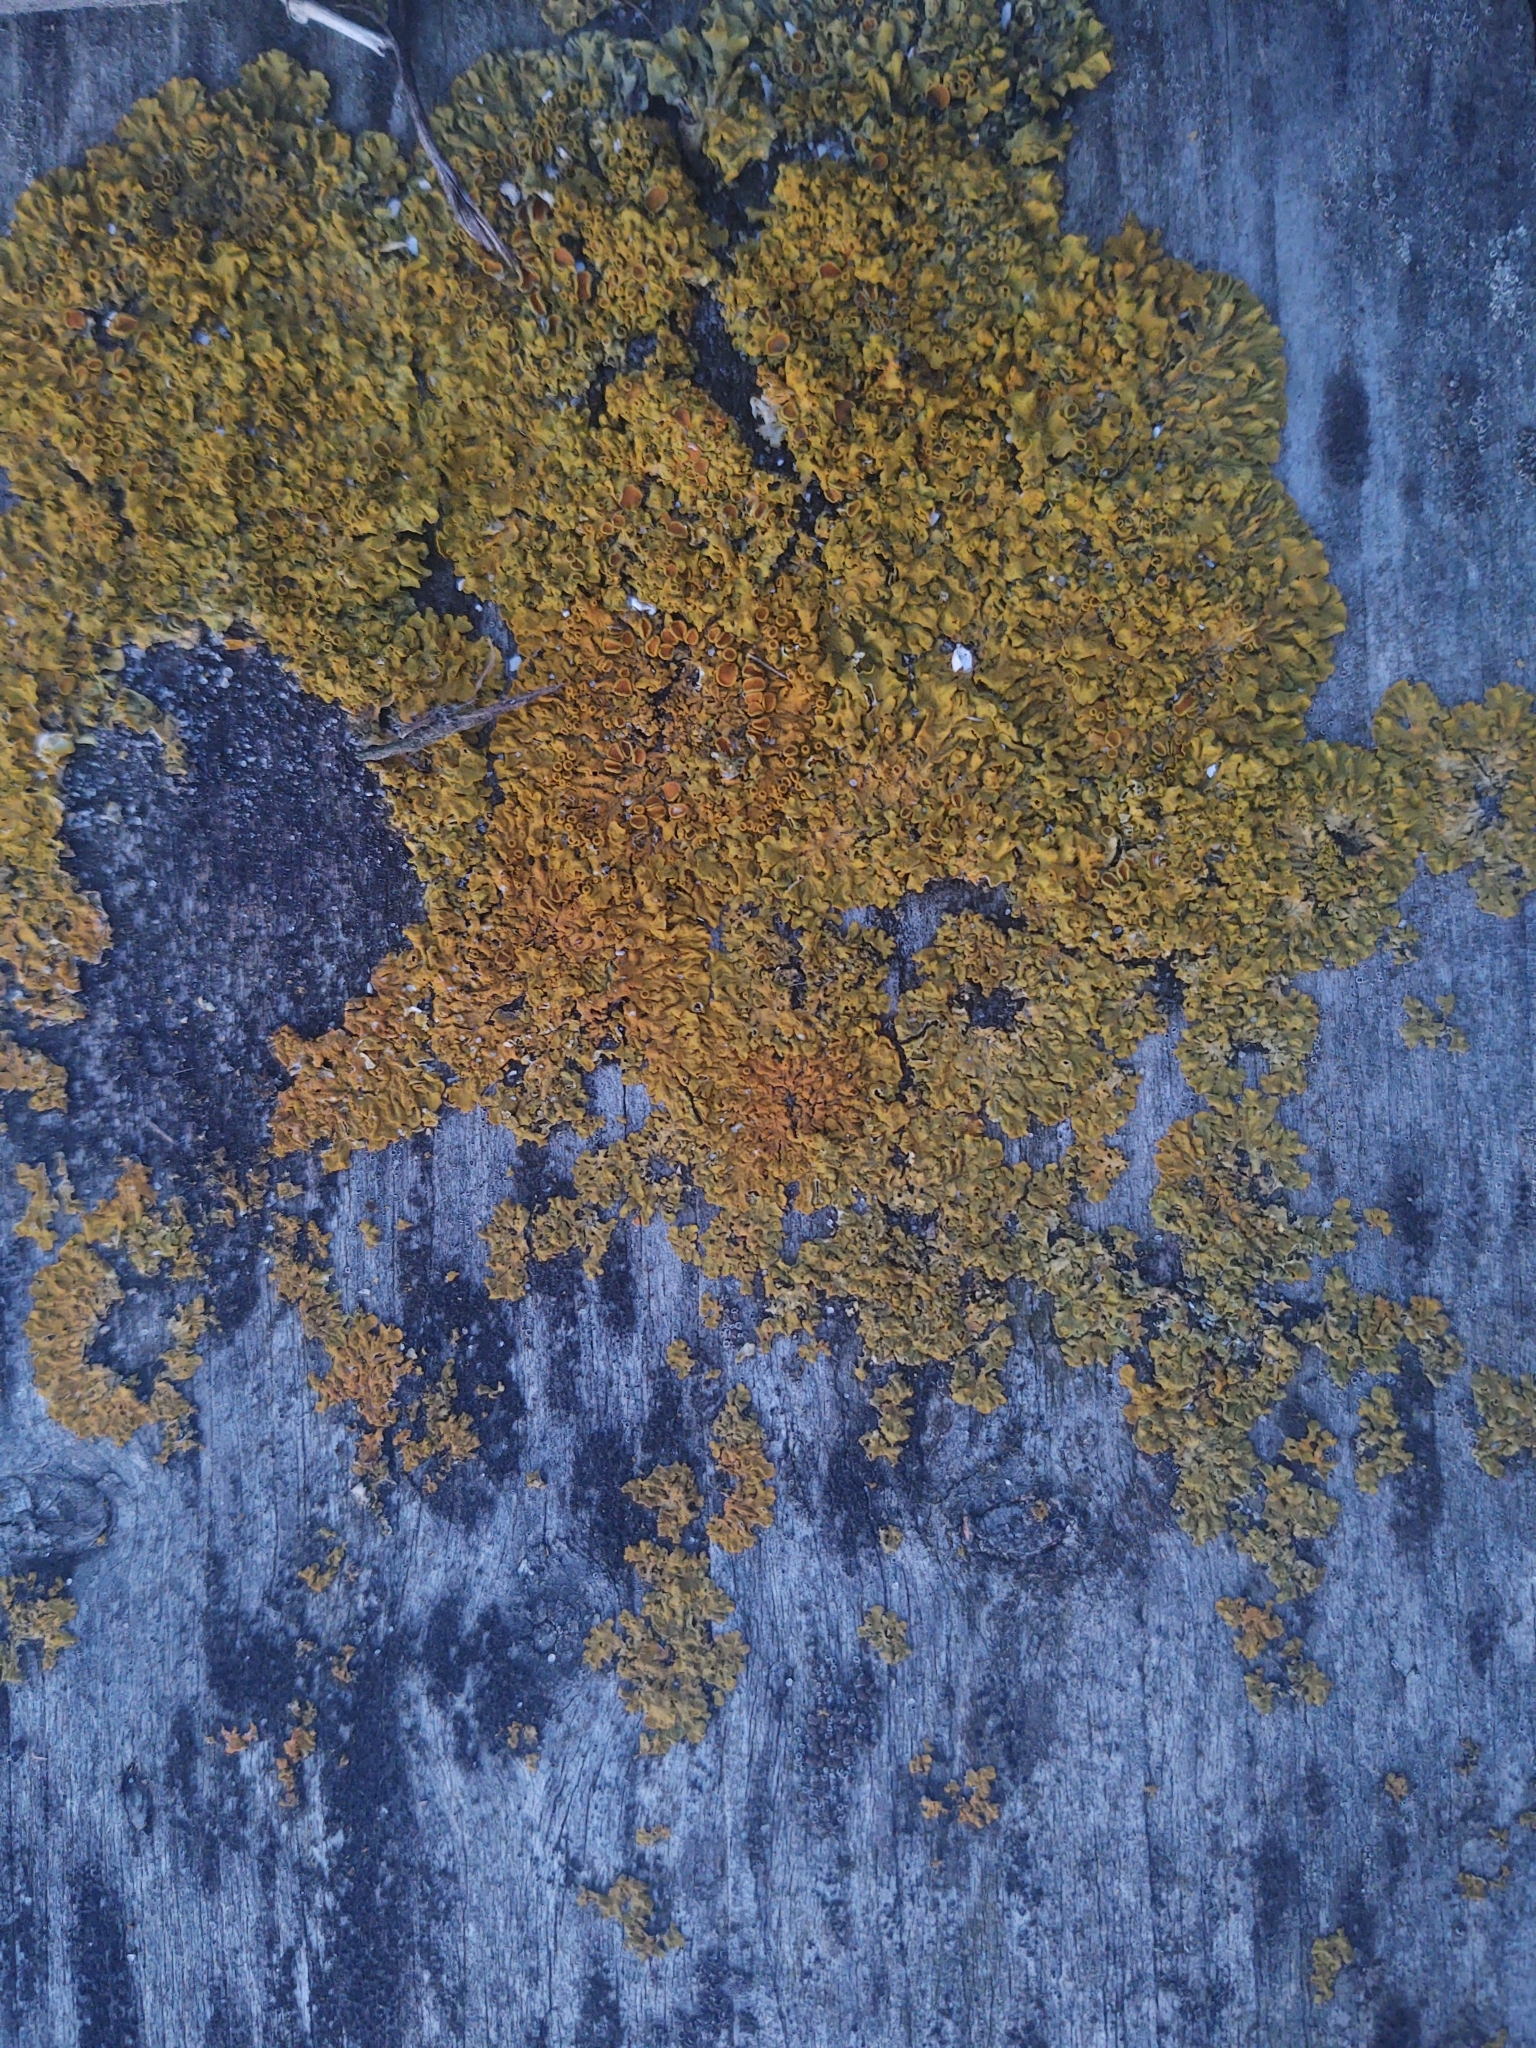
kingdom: Fungi
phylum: Ascomycota
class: Lecanoromycetes
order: Teloschistales
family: Teloschistaceae
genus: Xanthoria
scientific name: Xanthoria parietina
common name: Common orange lichen
